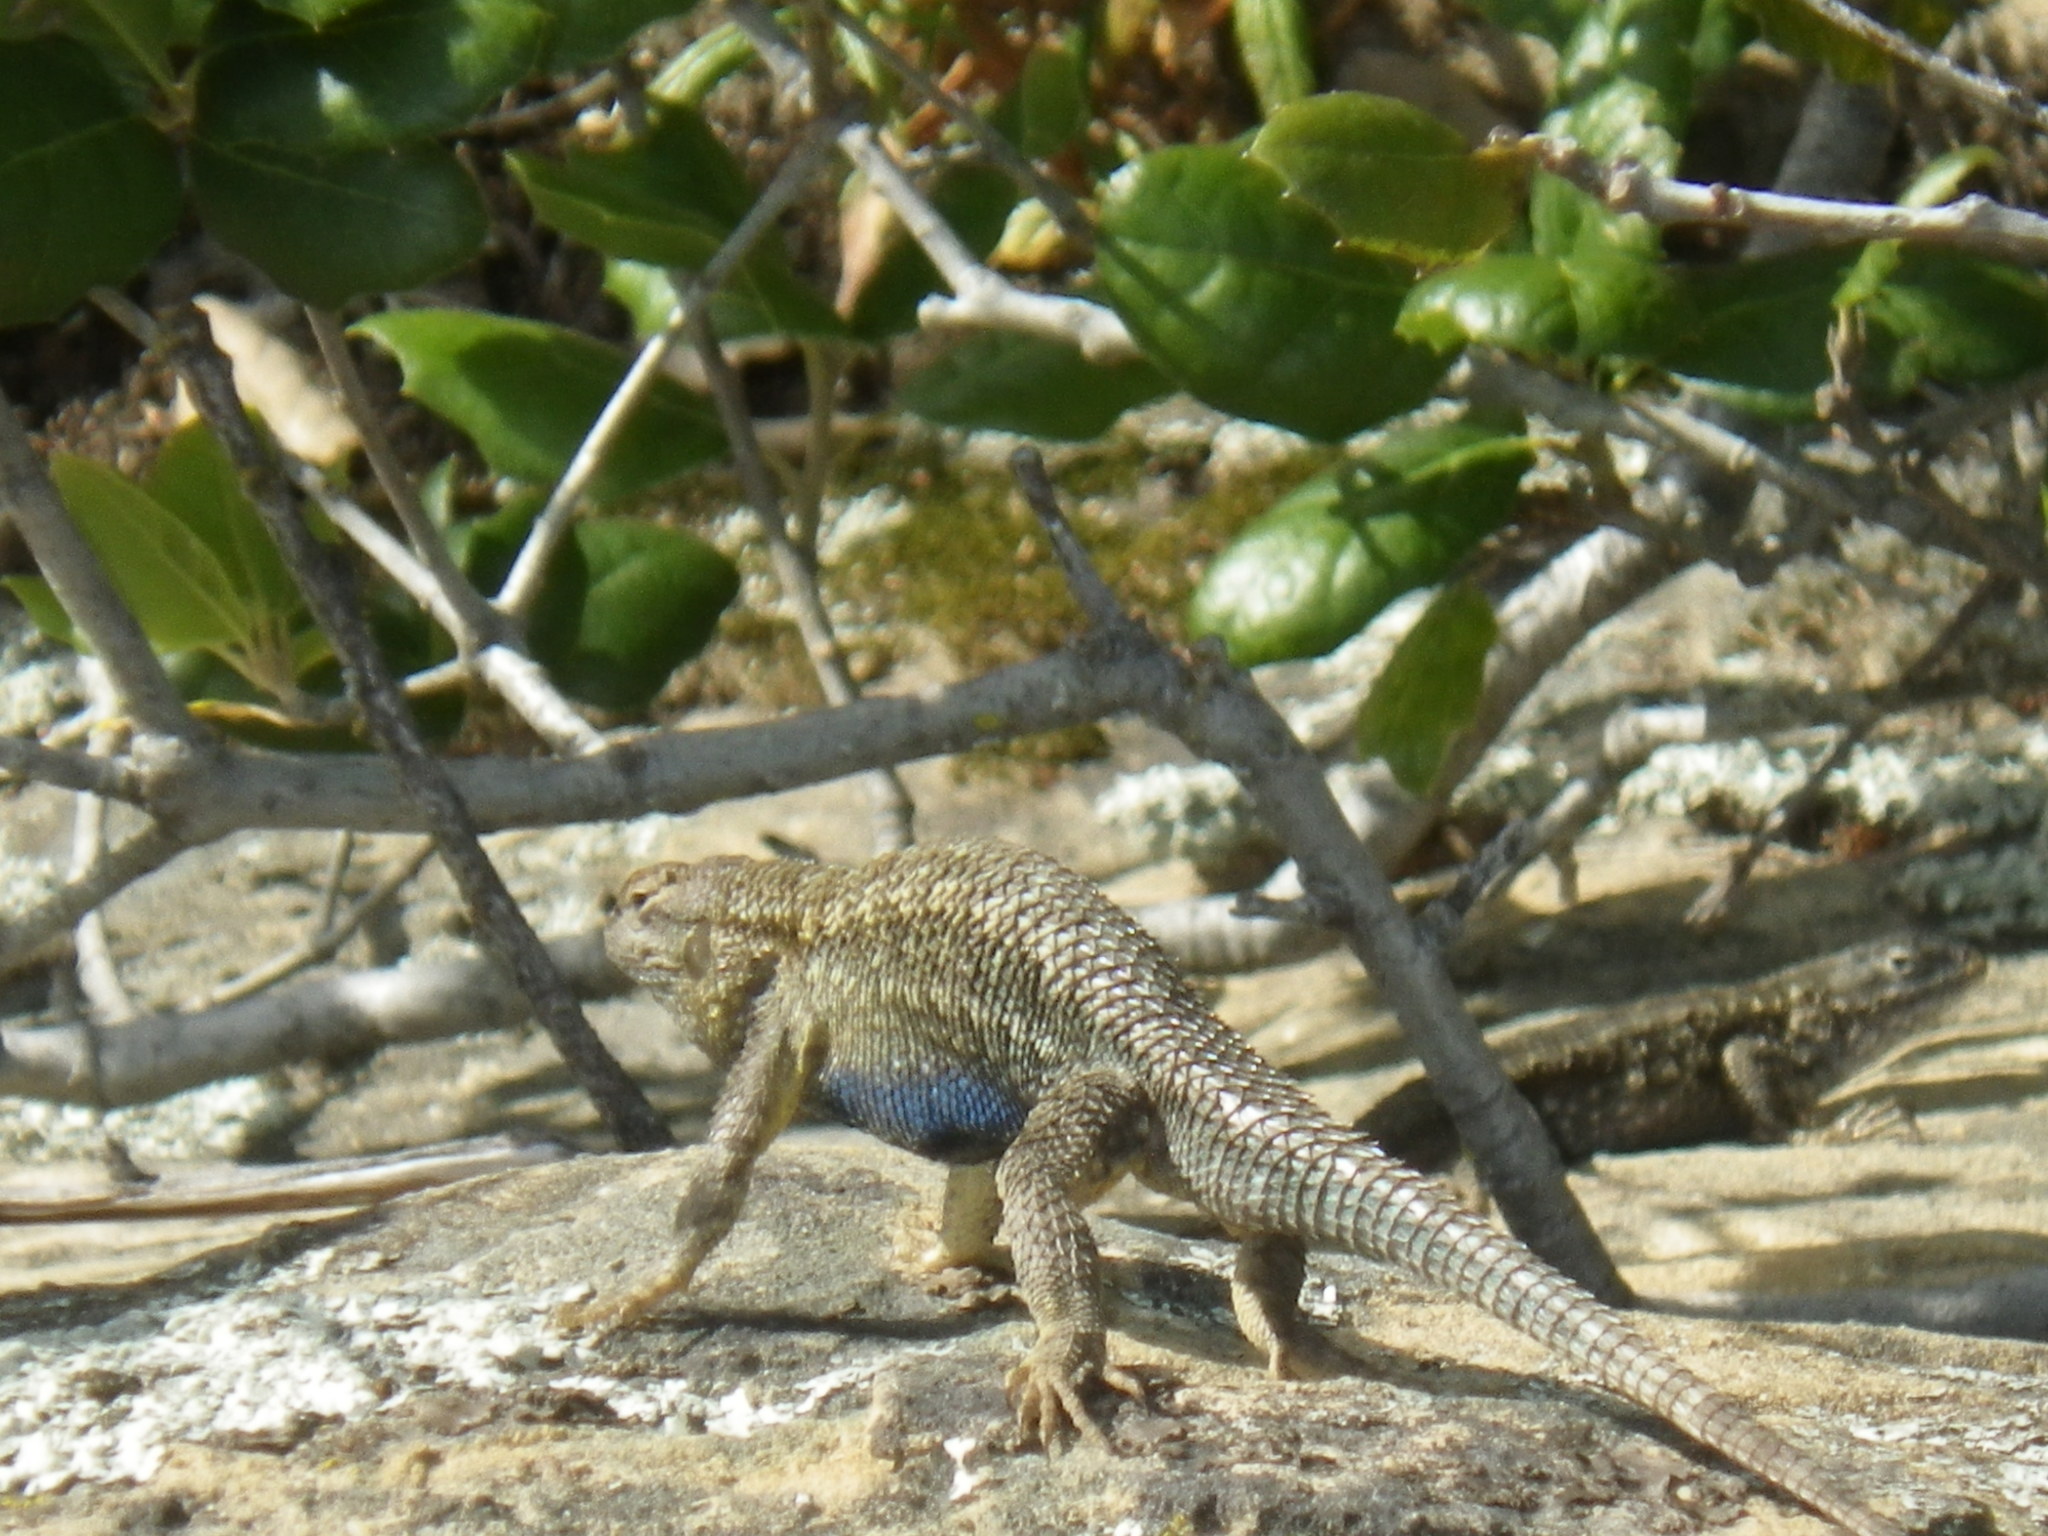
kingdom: Animalia
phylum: Chordata
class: Squamata
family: Phrynosomatidae
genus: Sceloporus
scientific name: Sceloporus occidentalis
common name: Western fence lizard
